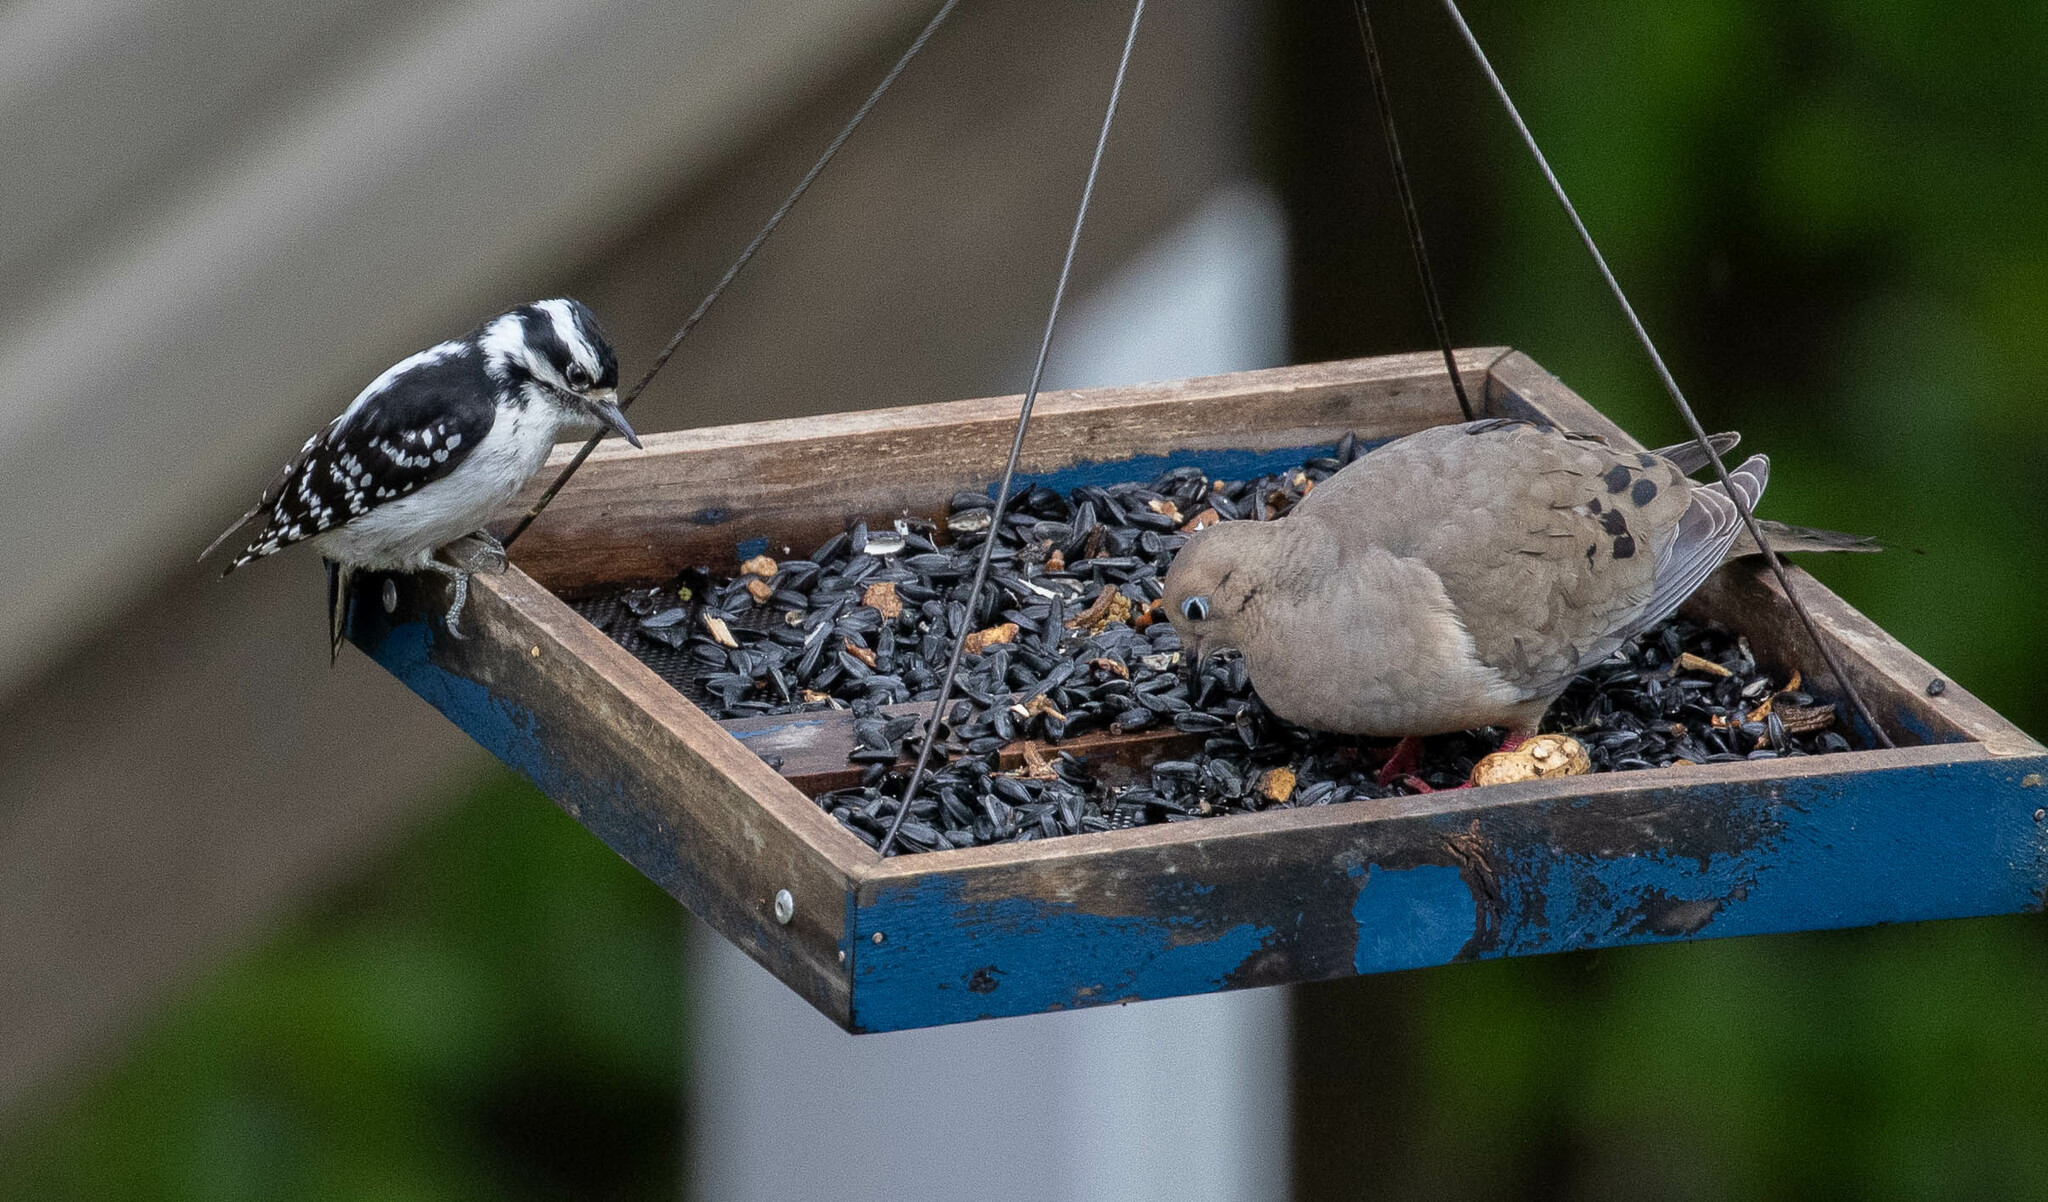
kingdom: Animalia
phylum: Chordata
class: Aves
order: Columbiformes
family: Columbidae
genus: Zenaida
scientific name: Zenaida macroura
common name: Mourning dove
